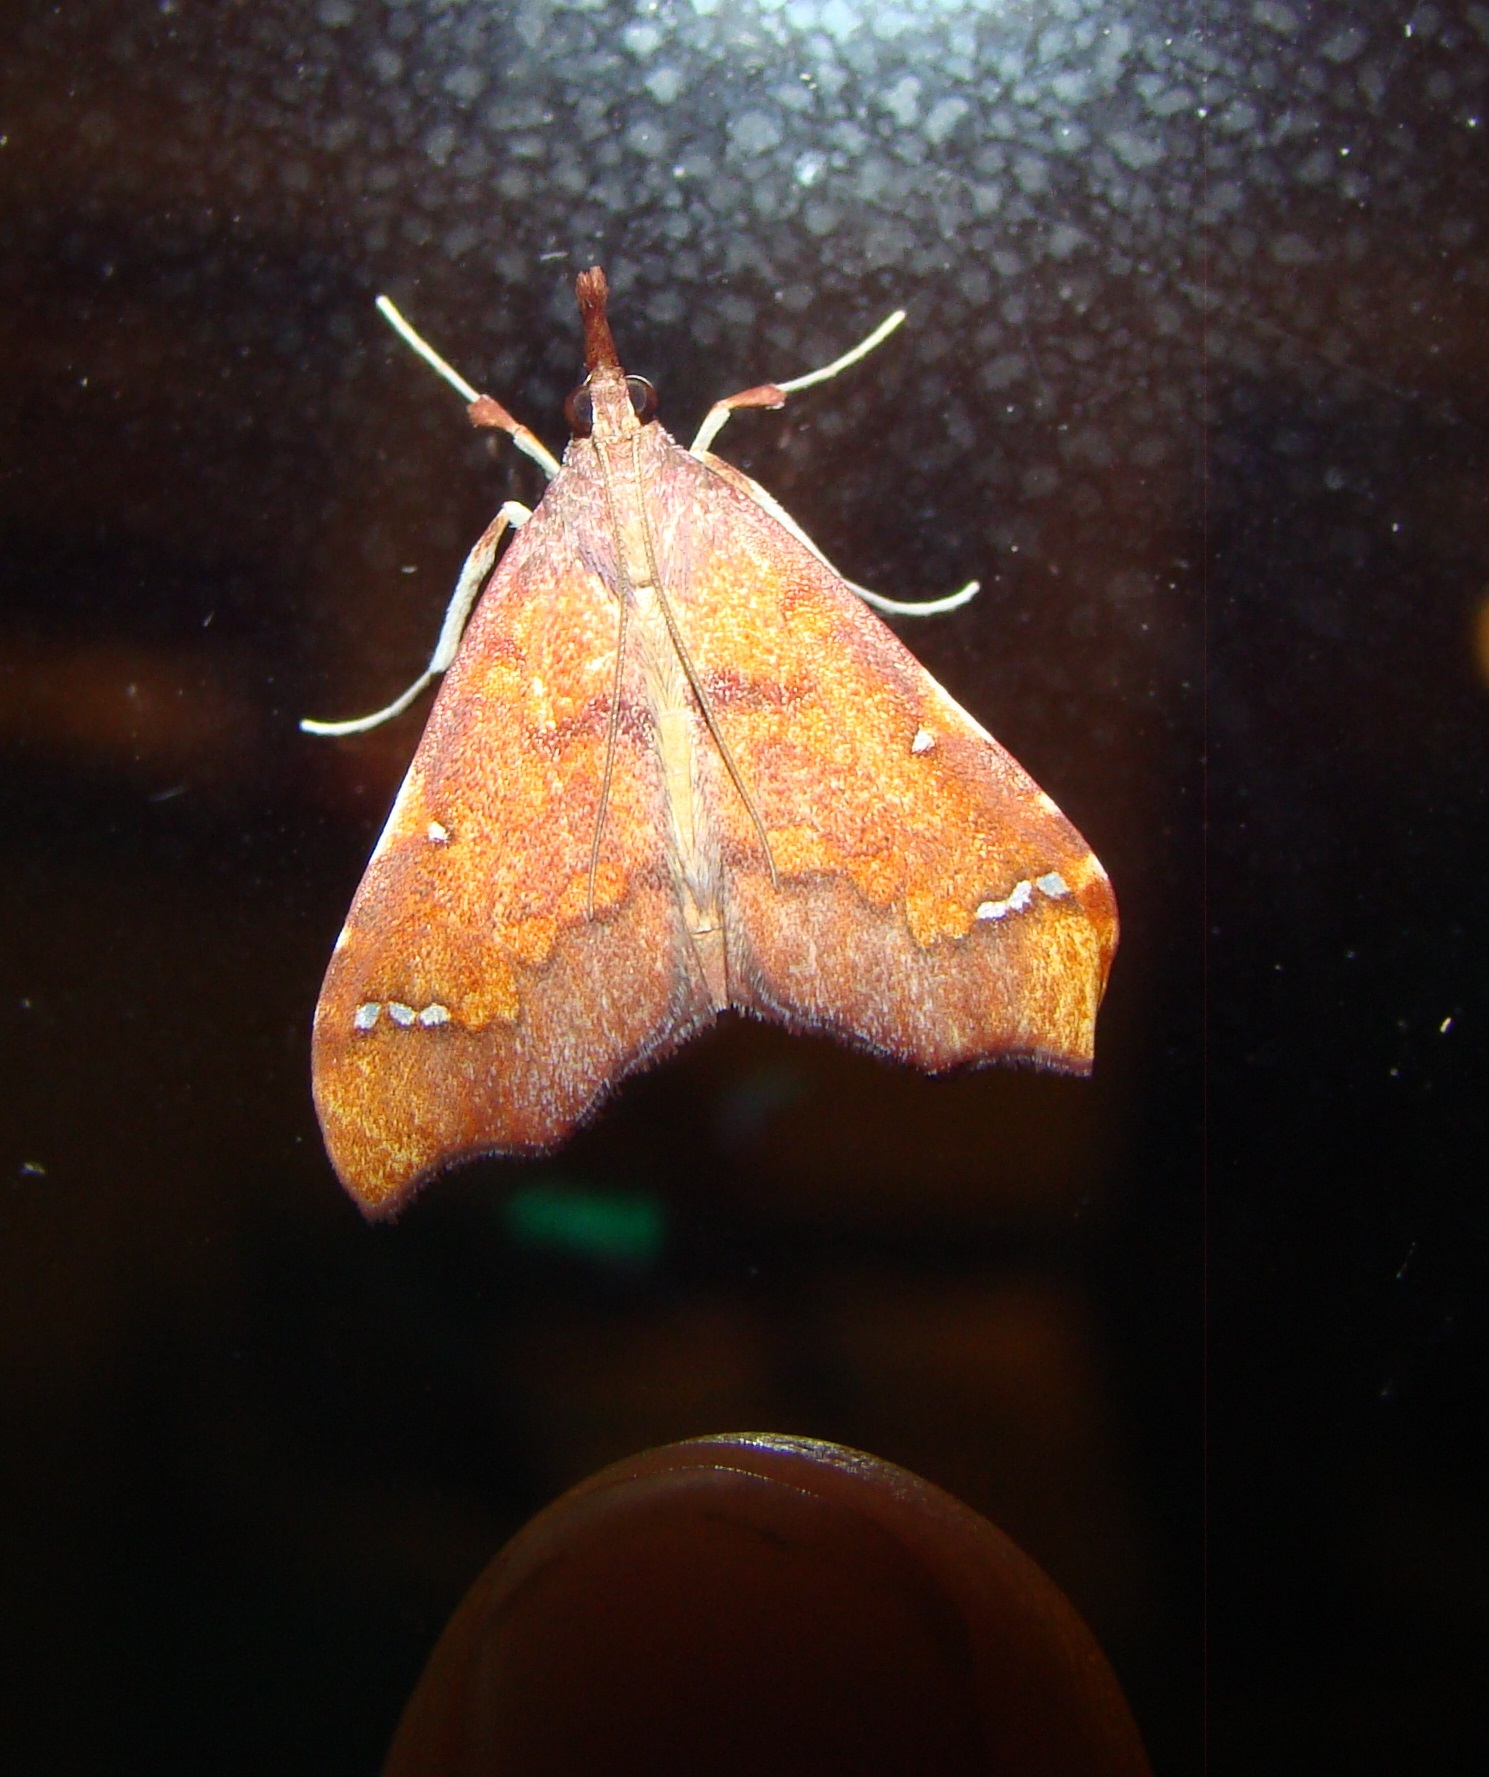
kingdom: Animalia
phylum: Arthropoda
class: Insecta
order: Lepidoptera
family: Crambidae
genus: Deana
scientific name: Deana hybreasalis
